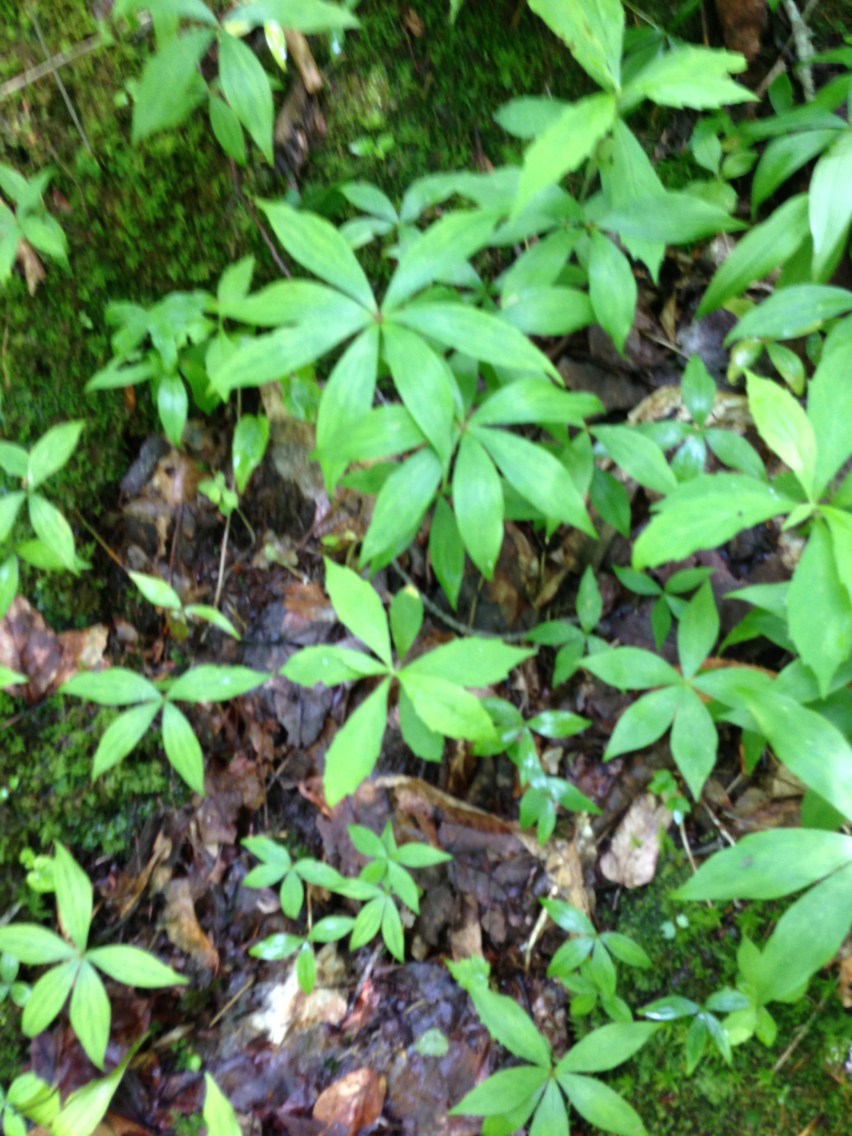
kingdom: Plantae
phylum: Tracheophyta
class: Magnoliopsida
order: Ericales
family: Primulaceae
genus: Lysimachia
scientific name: Lysimachia borealis
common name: American starflower
